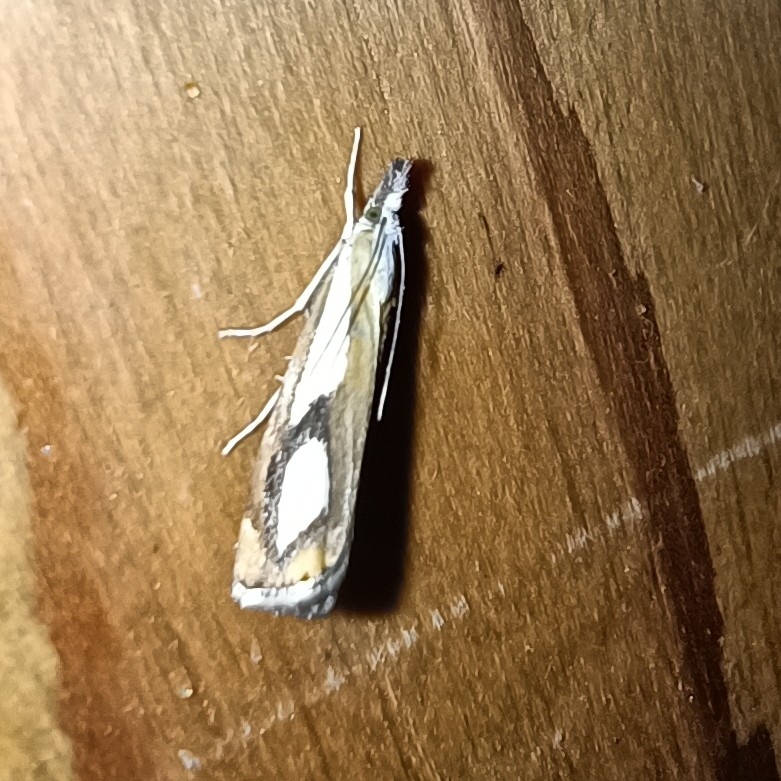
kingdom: Animalia
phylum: Arthropoda
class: Insecta
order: Lepidoptera
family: Crambidae
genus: Catoptria
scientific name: Catoptria pinella
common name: Pearl grass-veneer
